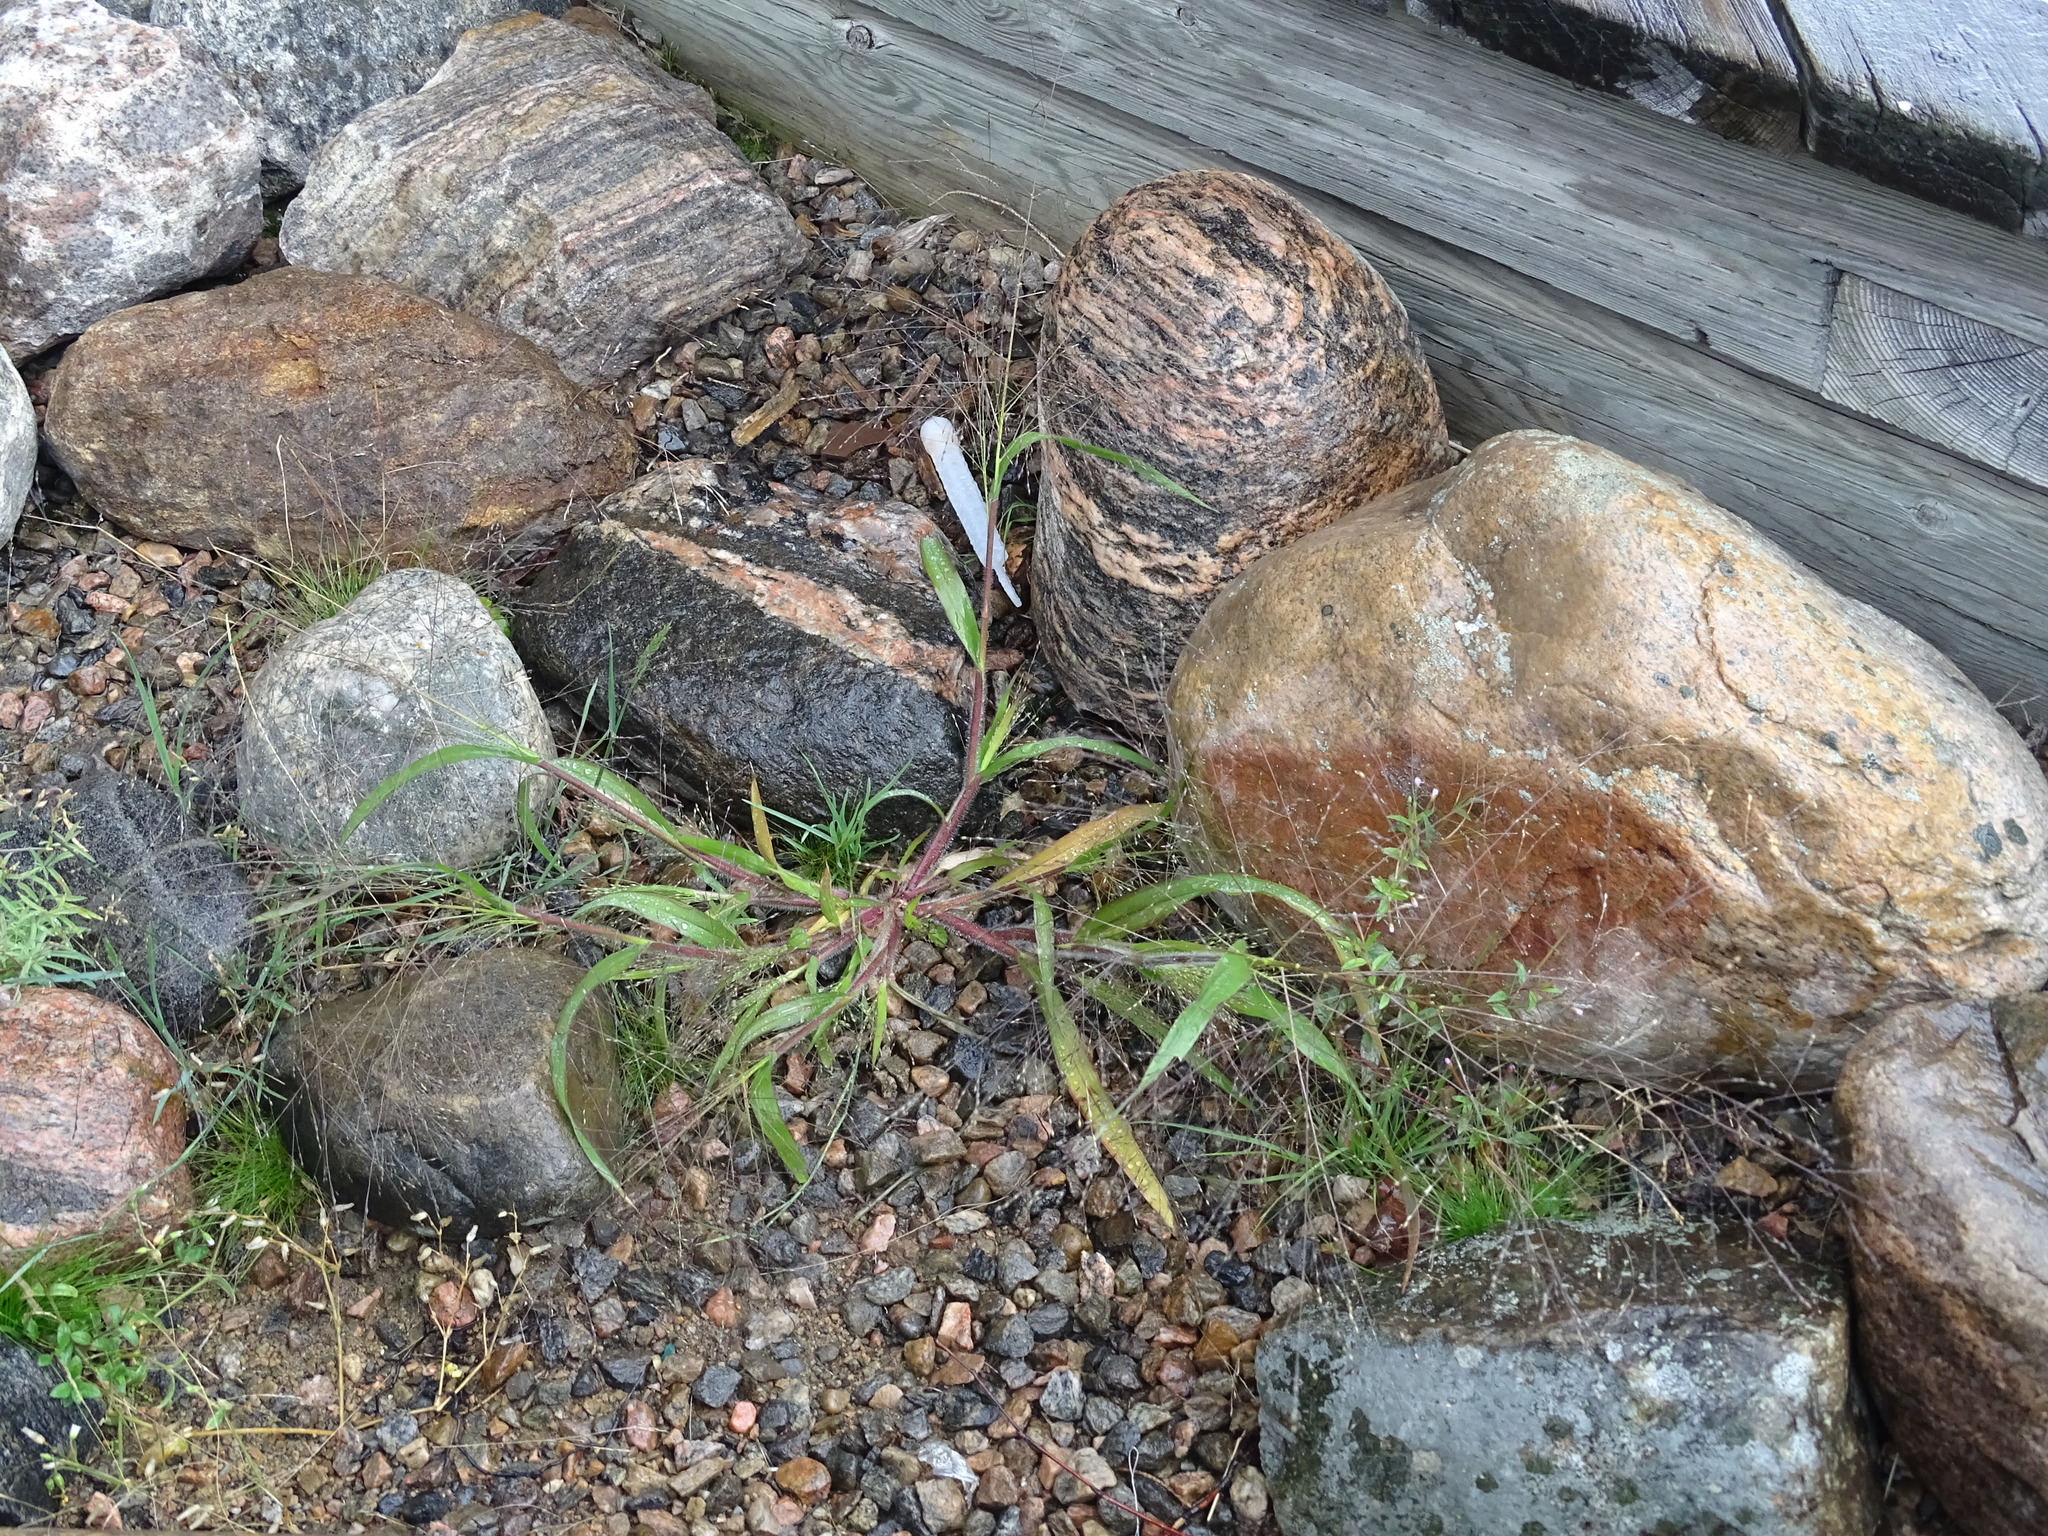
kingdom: Plantae
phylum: Tracheophyta
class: Liliopsida
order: Poales
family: Poaceae
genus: Panicum
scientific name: Panicum capillare
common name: Witch-grass
